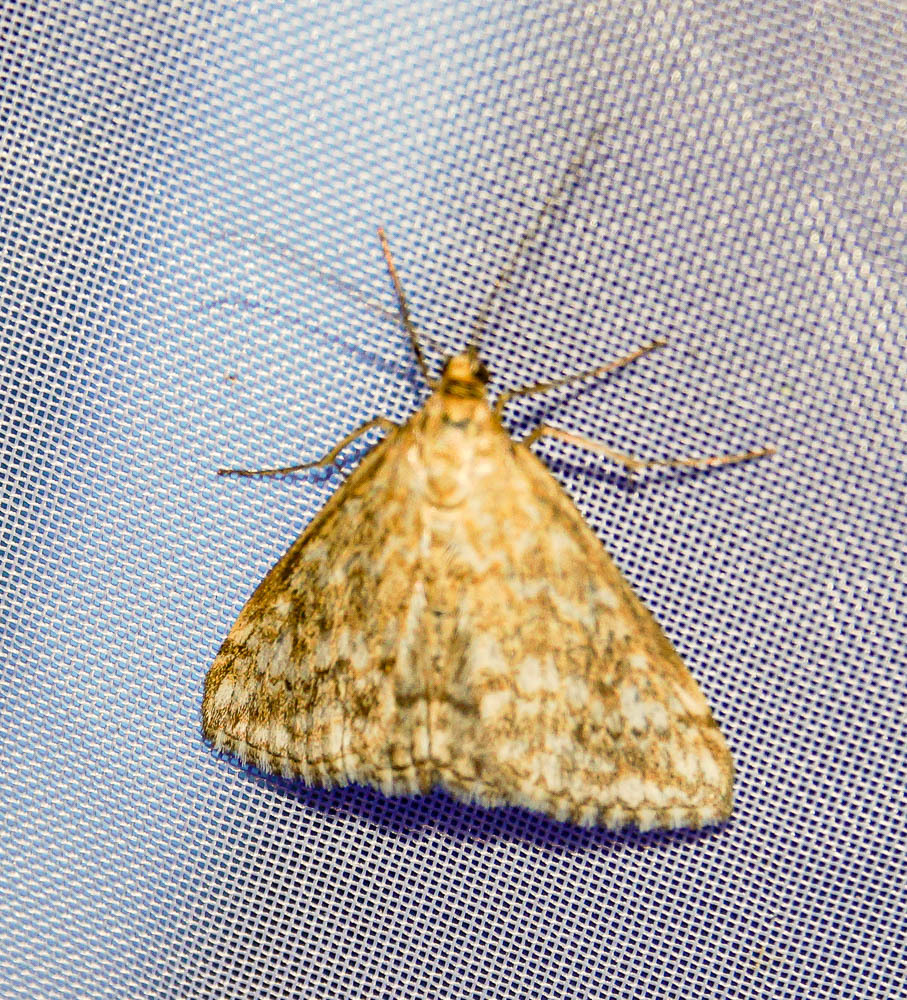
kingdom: Animalia
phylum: Arthropoda
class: Insecta
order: Lepidoptera
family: Crambidae
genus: Evergestis
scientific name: Evergestis frumentalis
